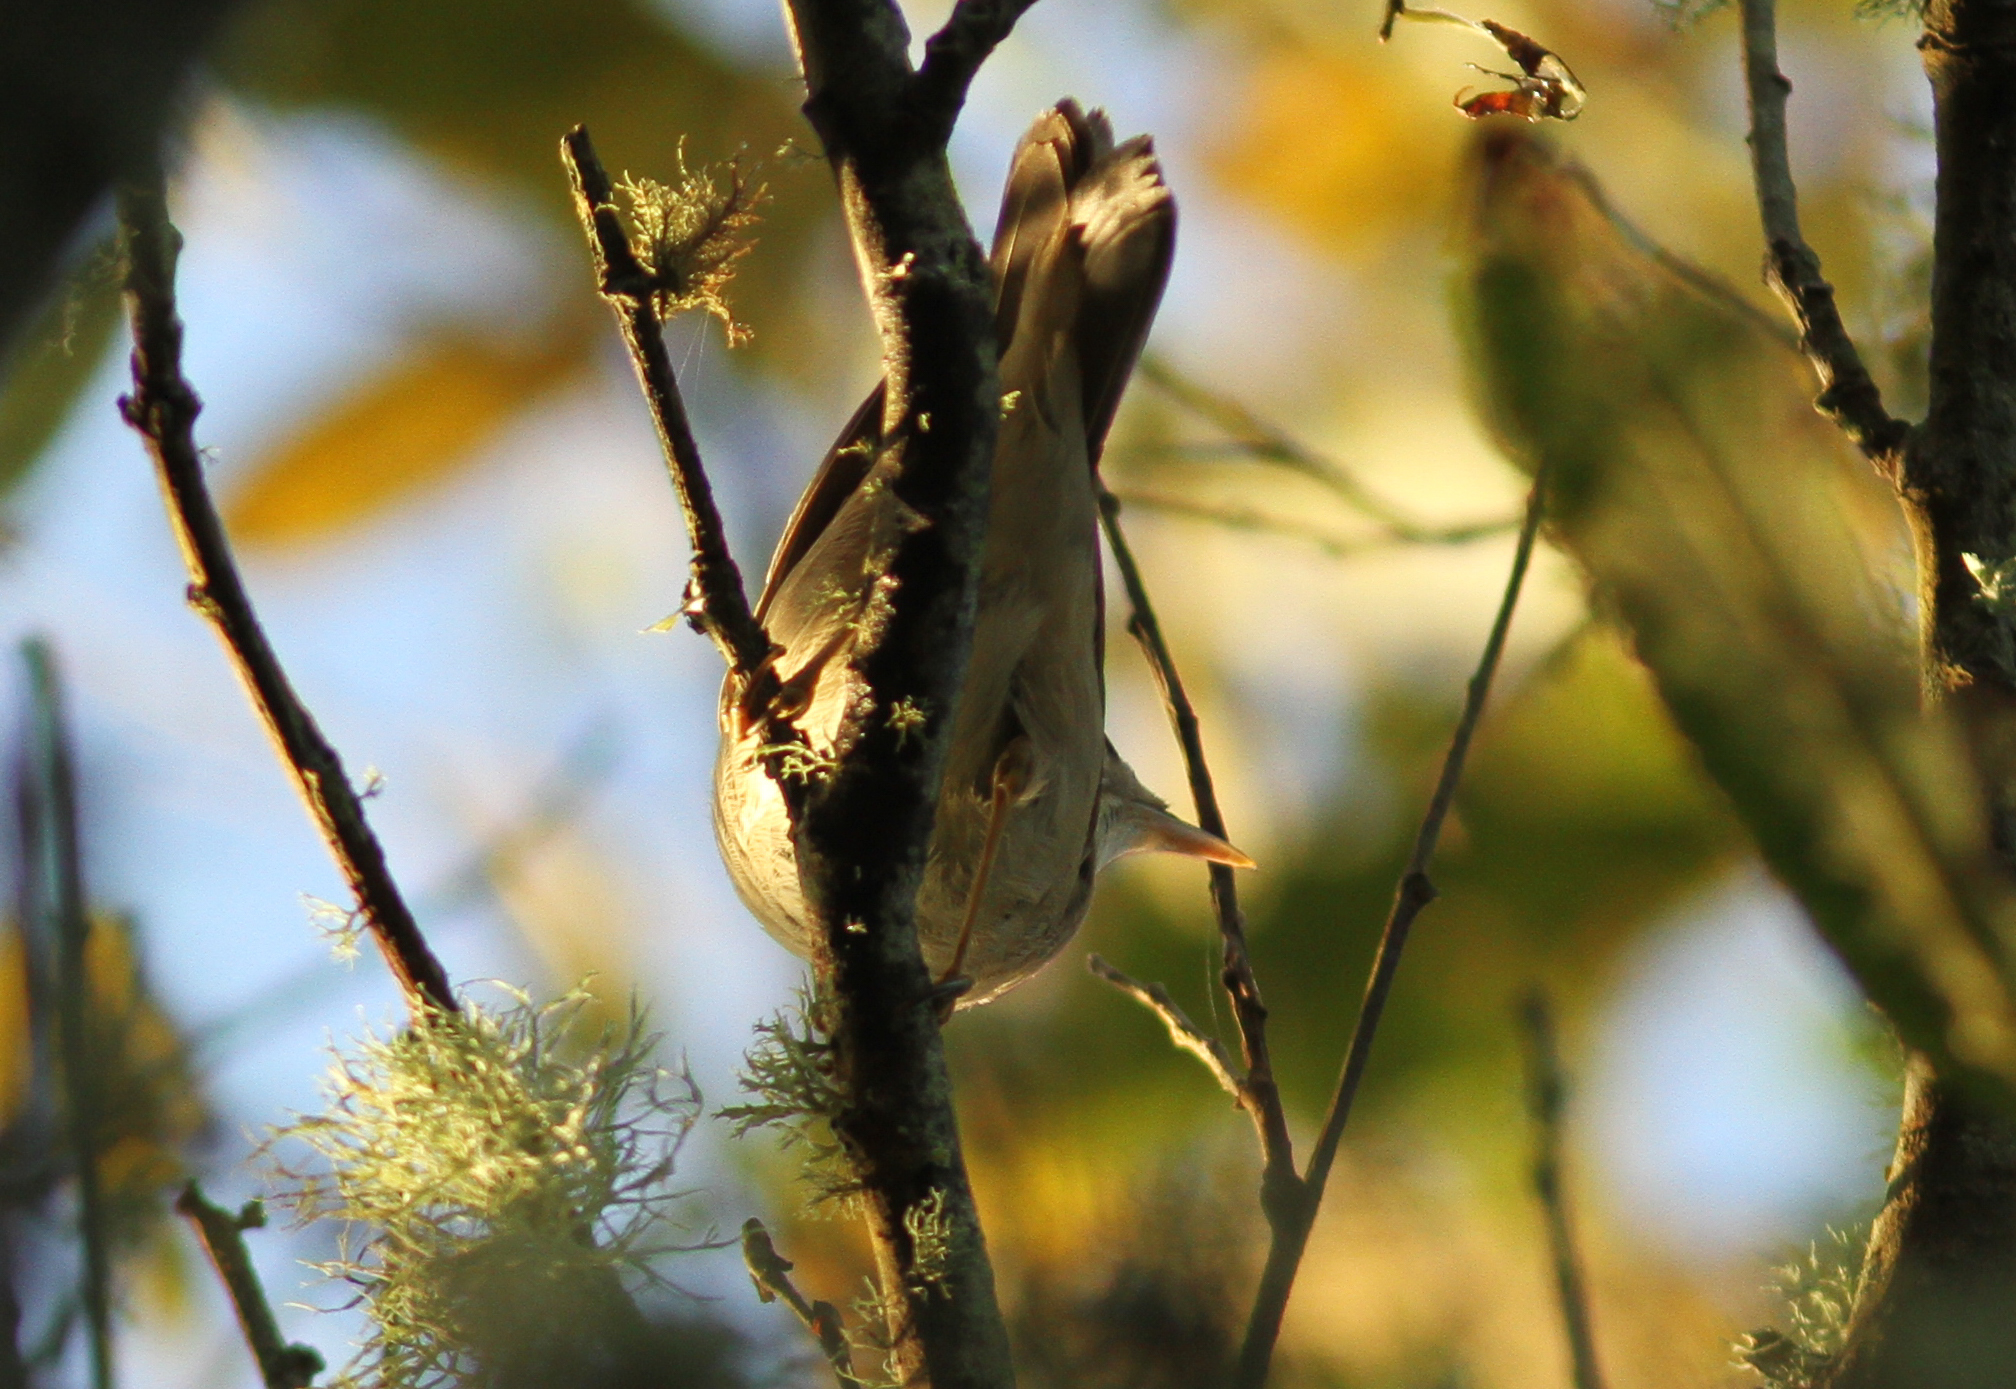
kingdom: Animalia
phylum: Chordata
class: Aves
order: Passeriformes
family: Phylloscopidae
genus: Phylloscopus
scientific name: Phylloscopus inornatus
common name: Yellow-browed warbler
